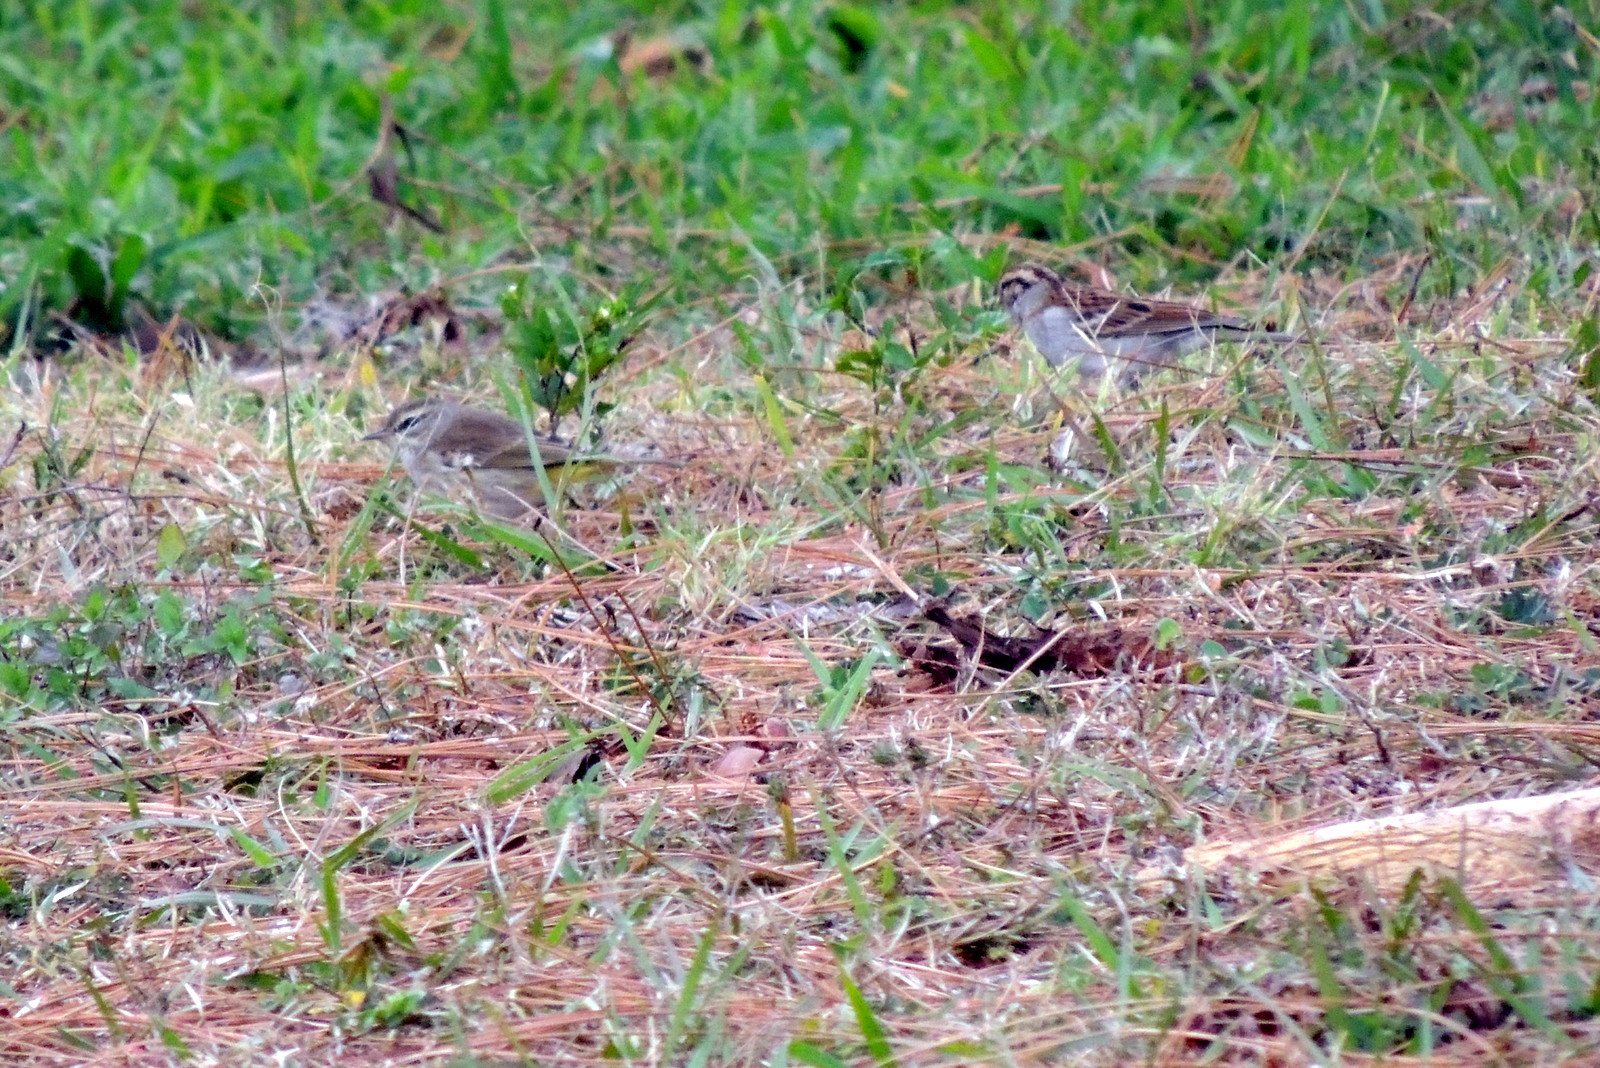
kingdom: Animalia
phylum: Chordata
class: Aves
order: Passeriformes
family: Parulidae
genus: Setophaga
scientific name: Setophaga palmarum
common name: Palm warbler
